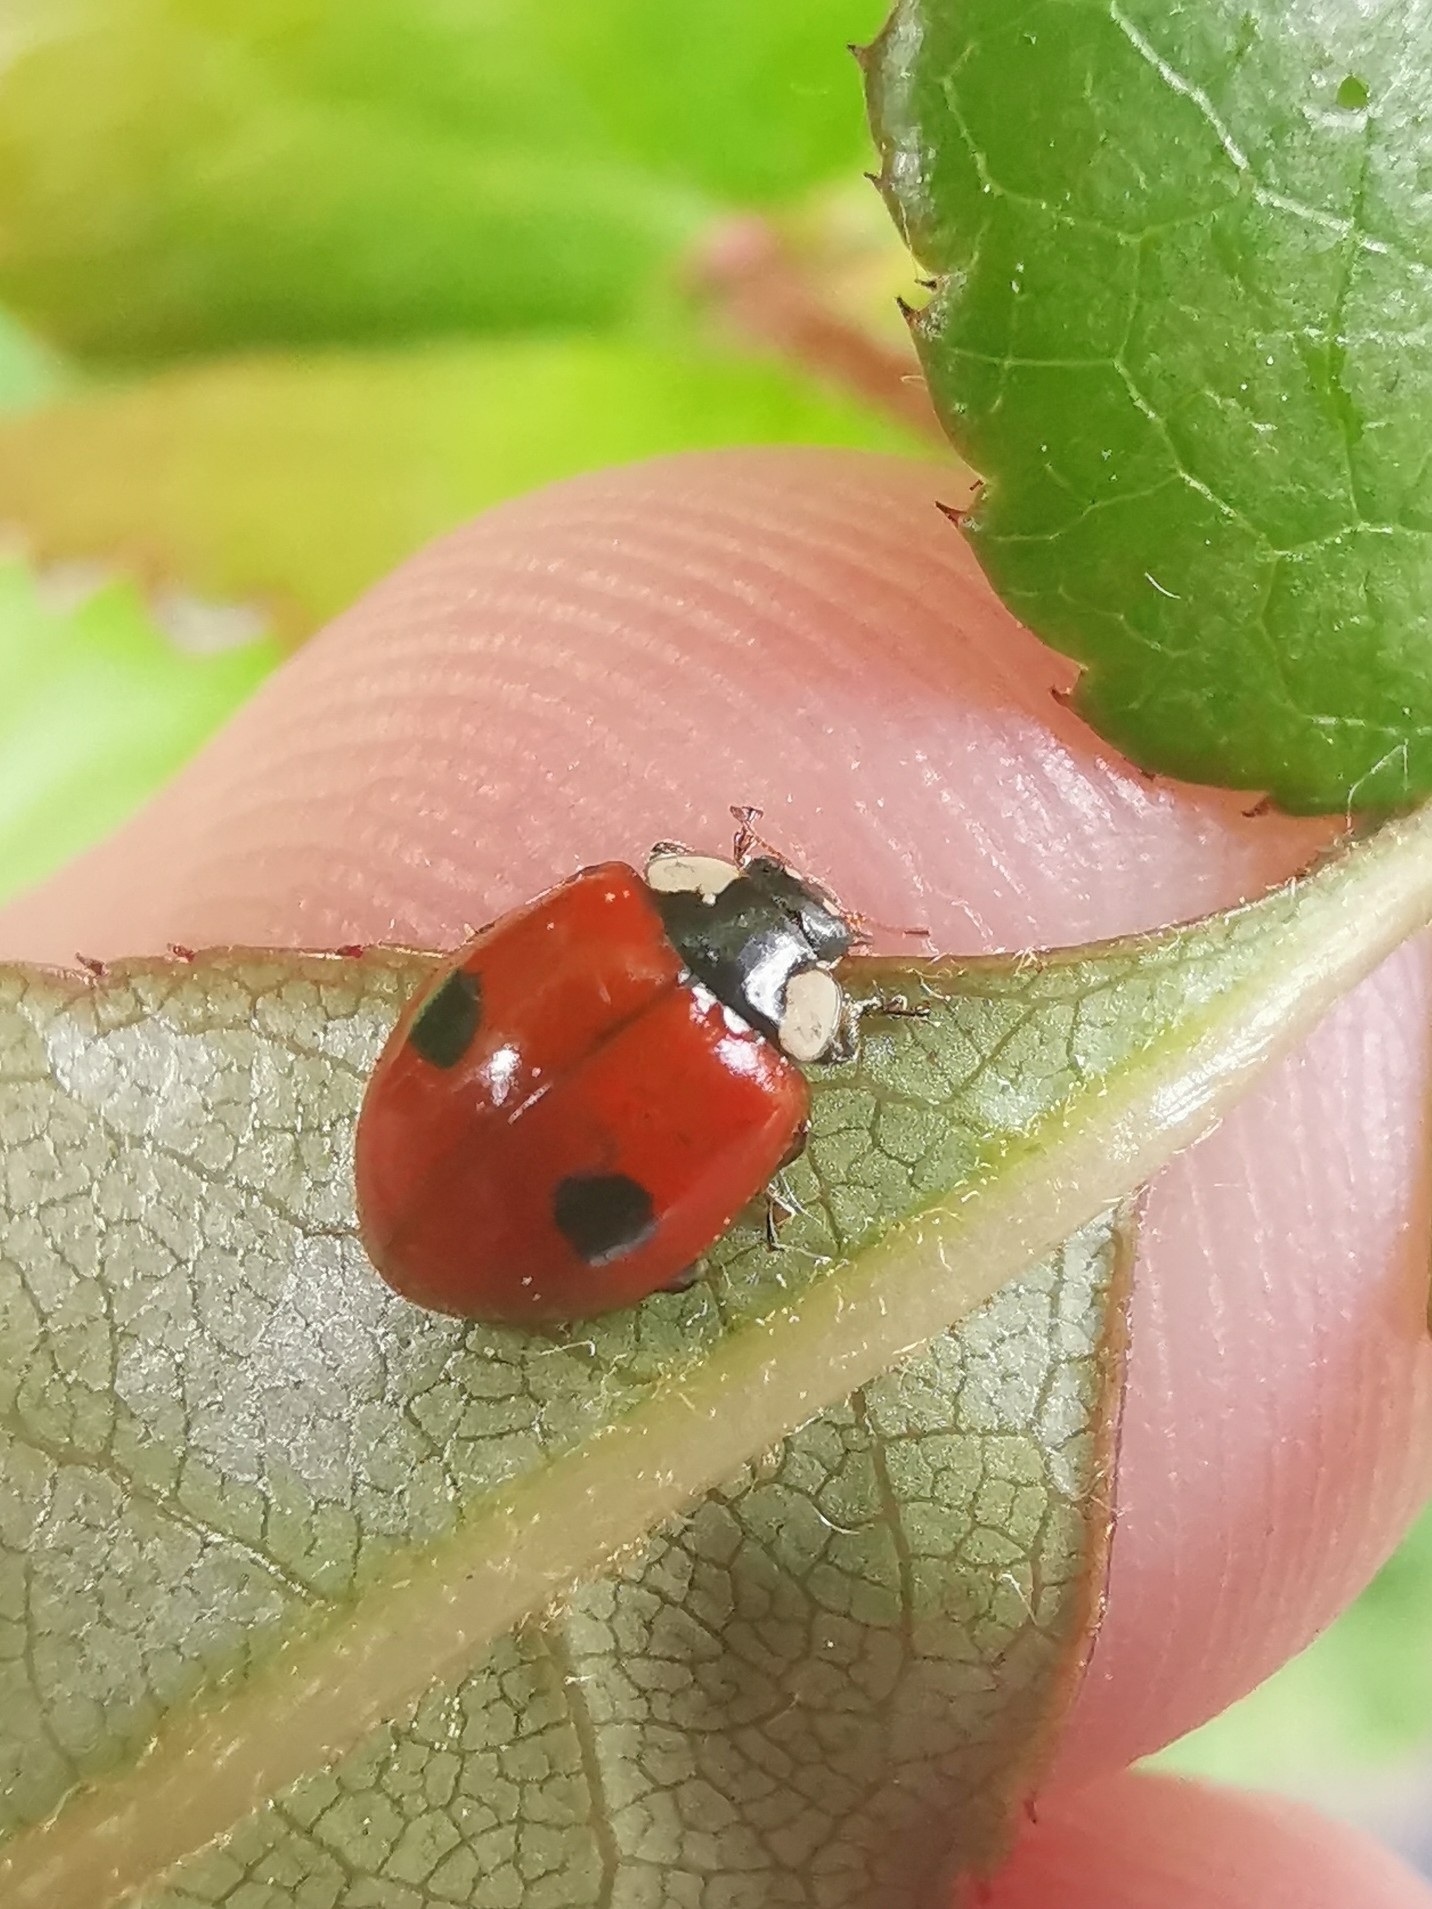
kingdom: Animalia
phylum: Arthropoda
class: Insecta
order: Coleoptera
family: Coccinellidae
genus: Adalia
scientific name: Adalia bipunctata
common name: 2-spot ladybird
